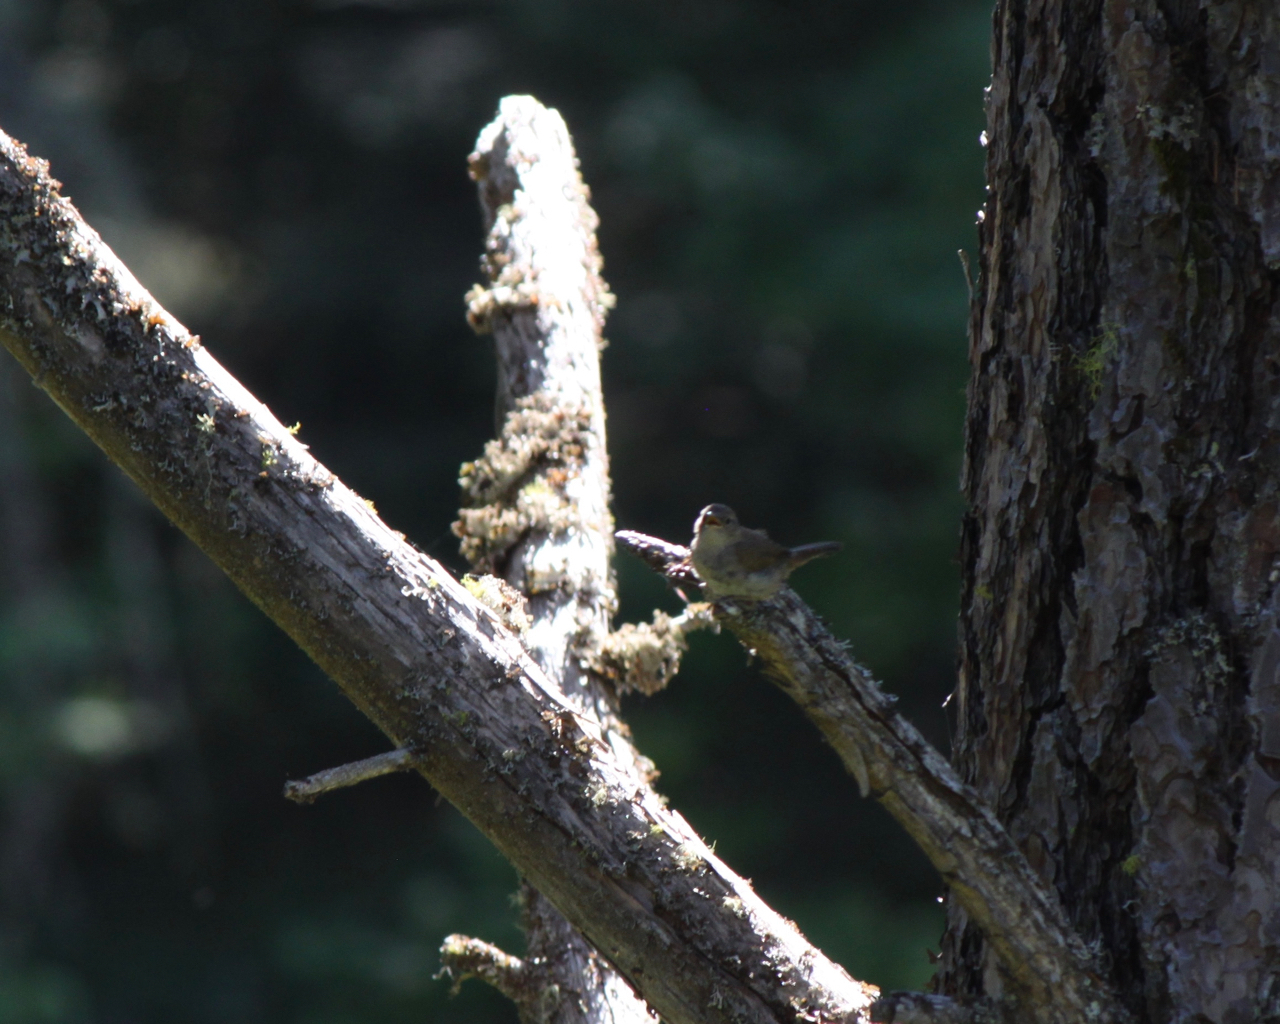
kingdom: Animalia
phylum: Chordata
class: Aves
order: Passeriformes
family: Troglodytidae
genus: Troglodytes
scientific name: Troglodytes aedon
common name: House wren
